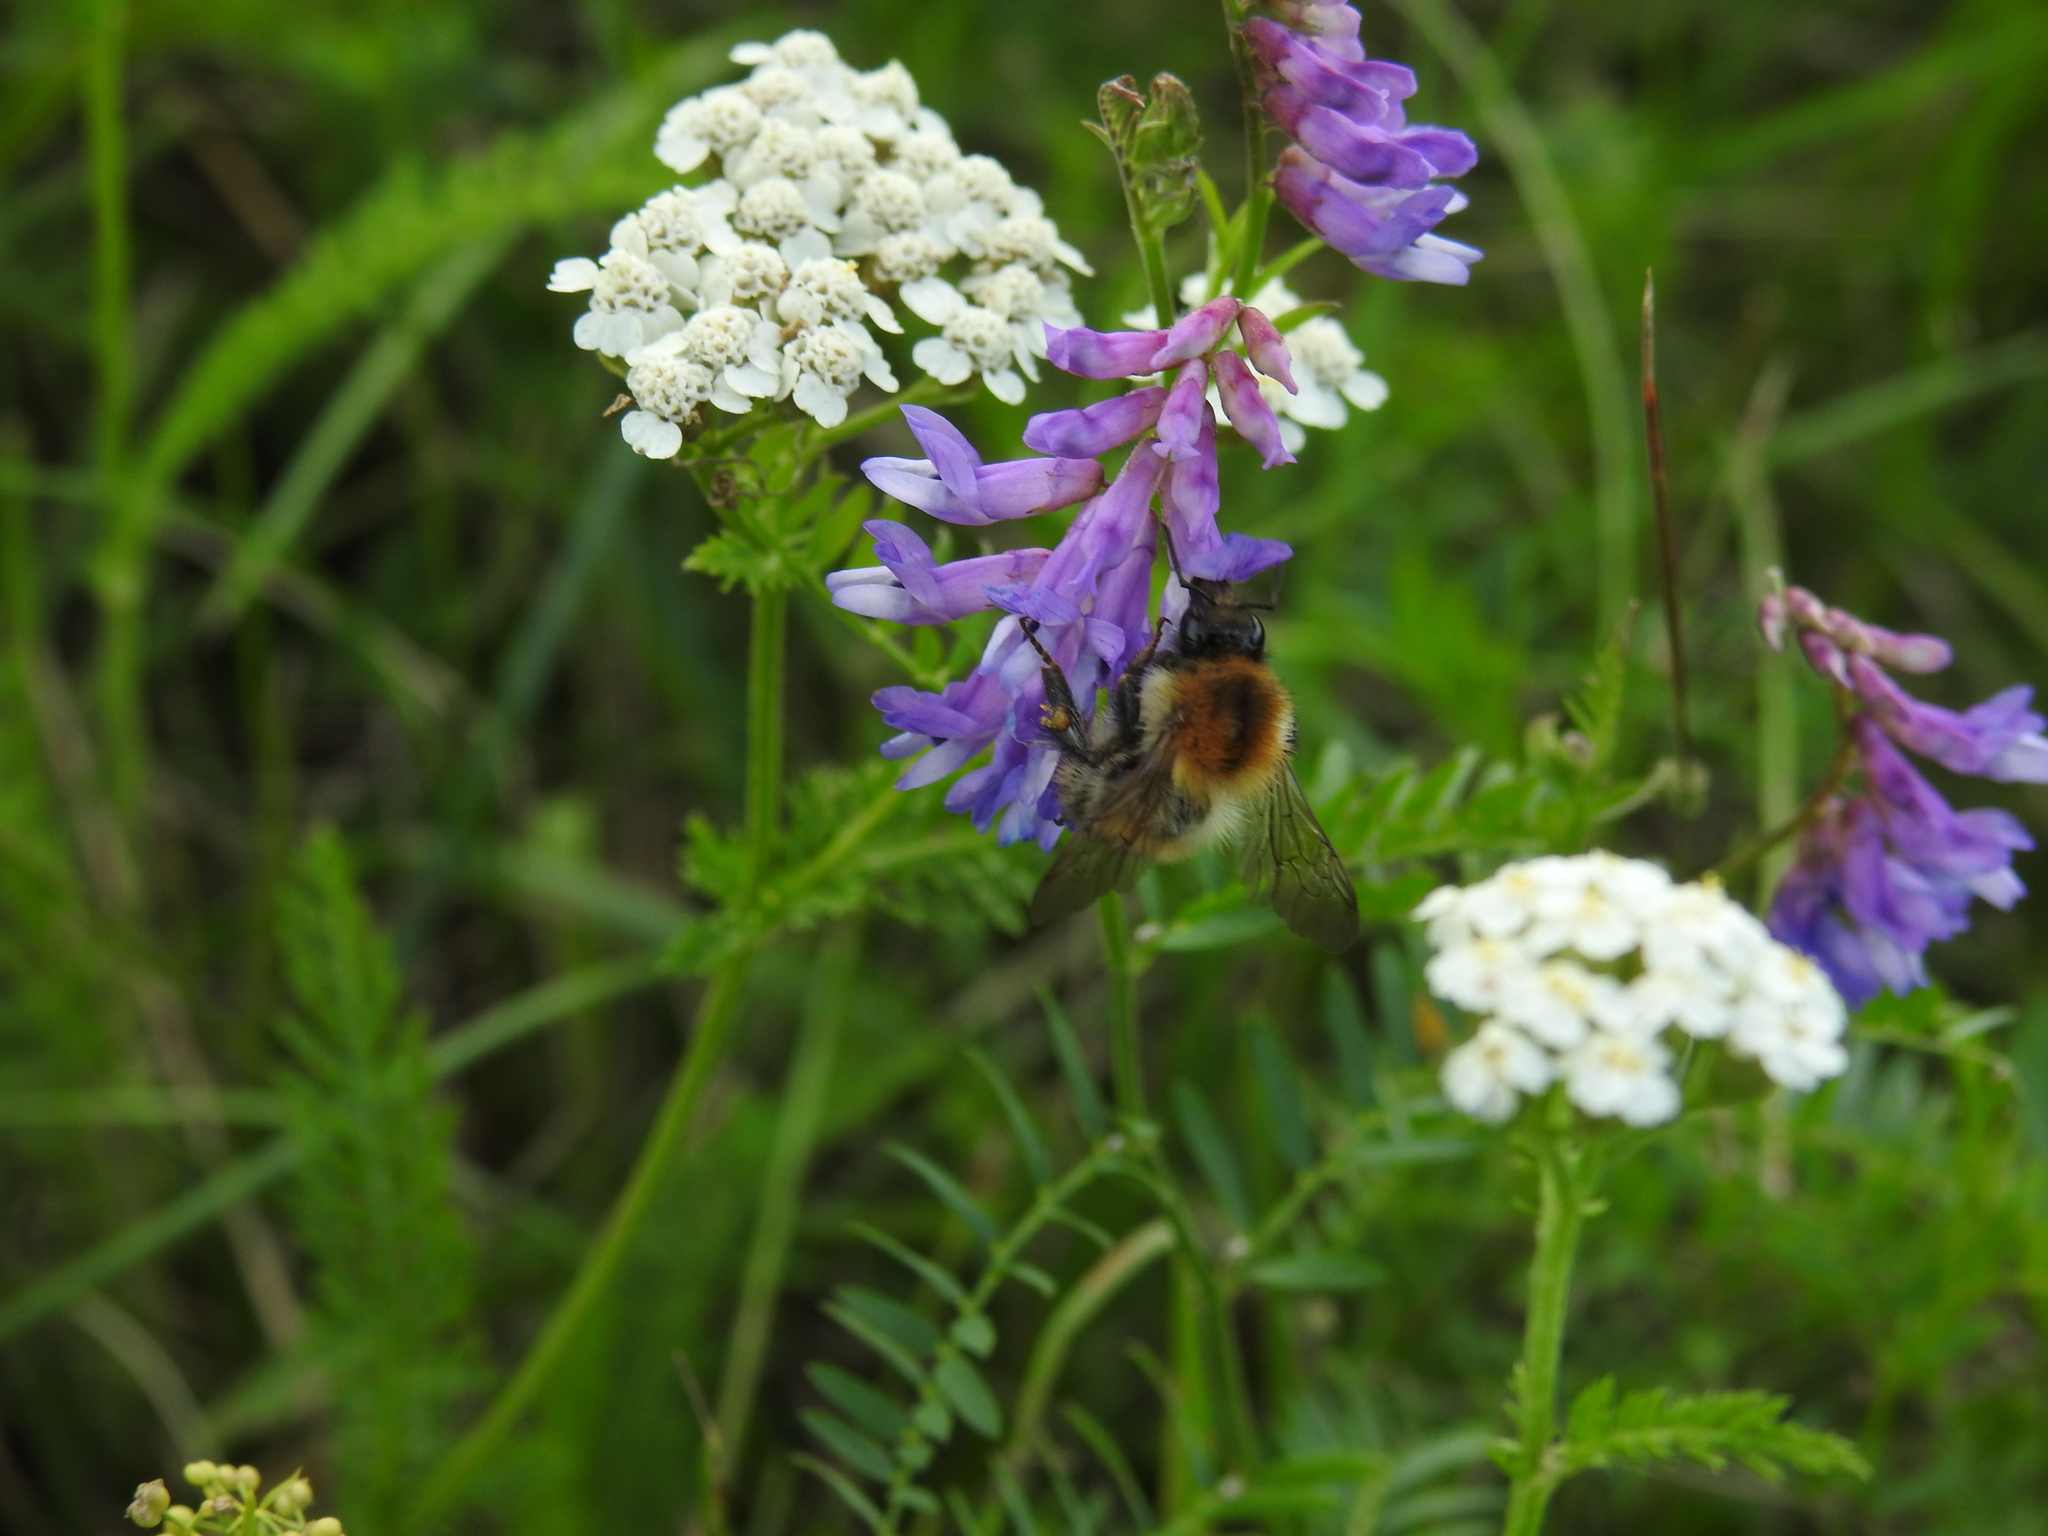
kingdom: Animalia
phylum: Arthropoda
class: Insecta
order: Hymenoptera
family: Apidae
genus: Bombus
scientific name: Bombus pascuorum
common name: Common carder bee
